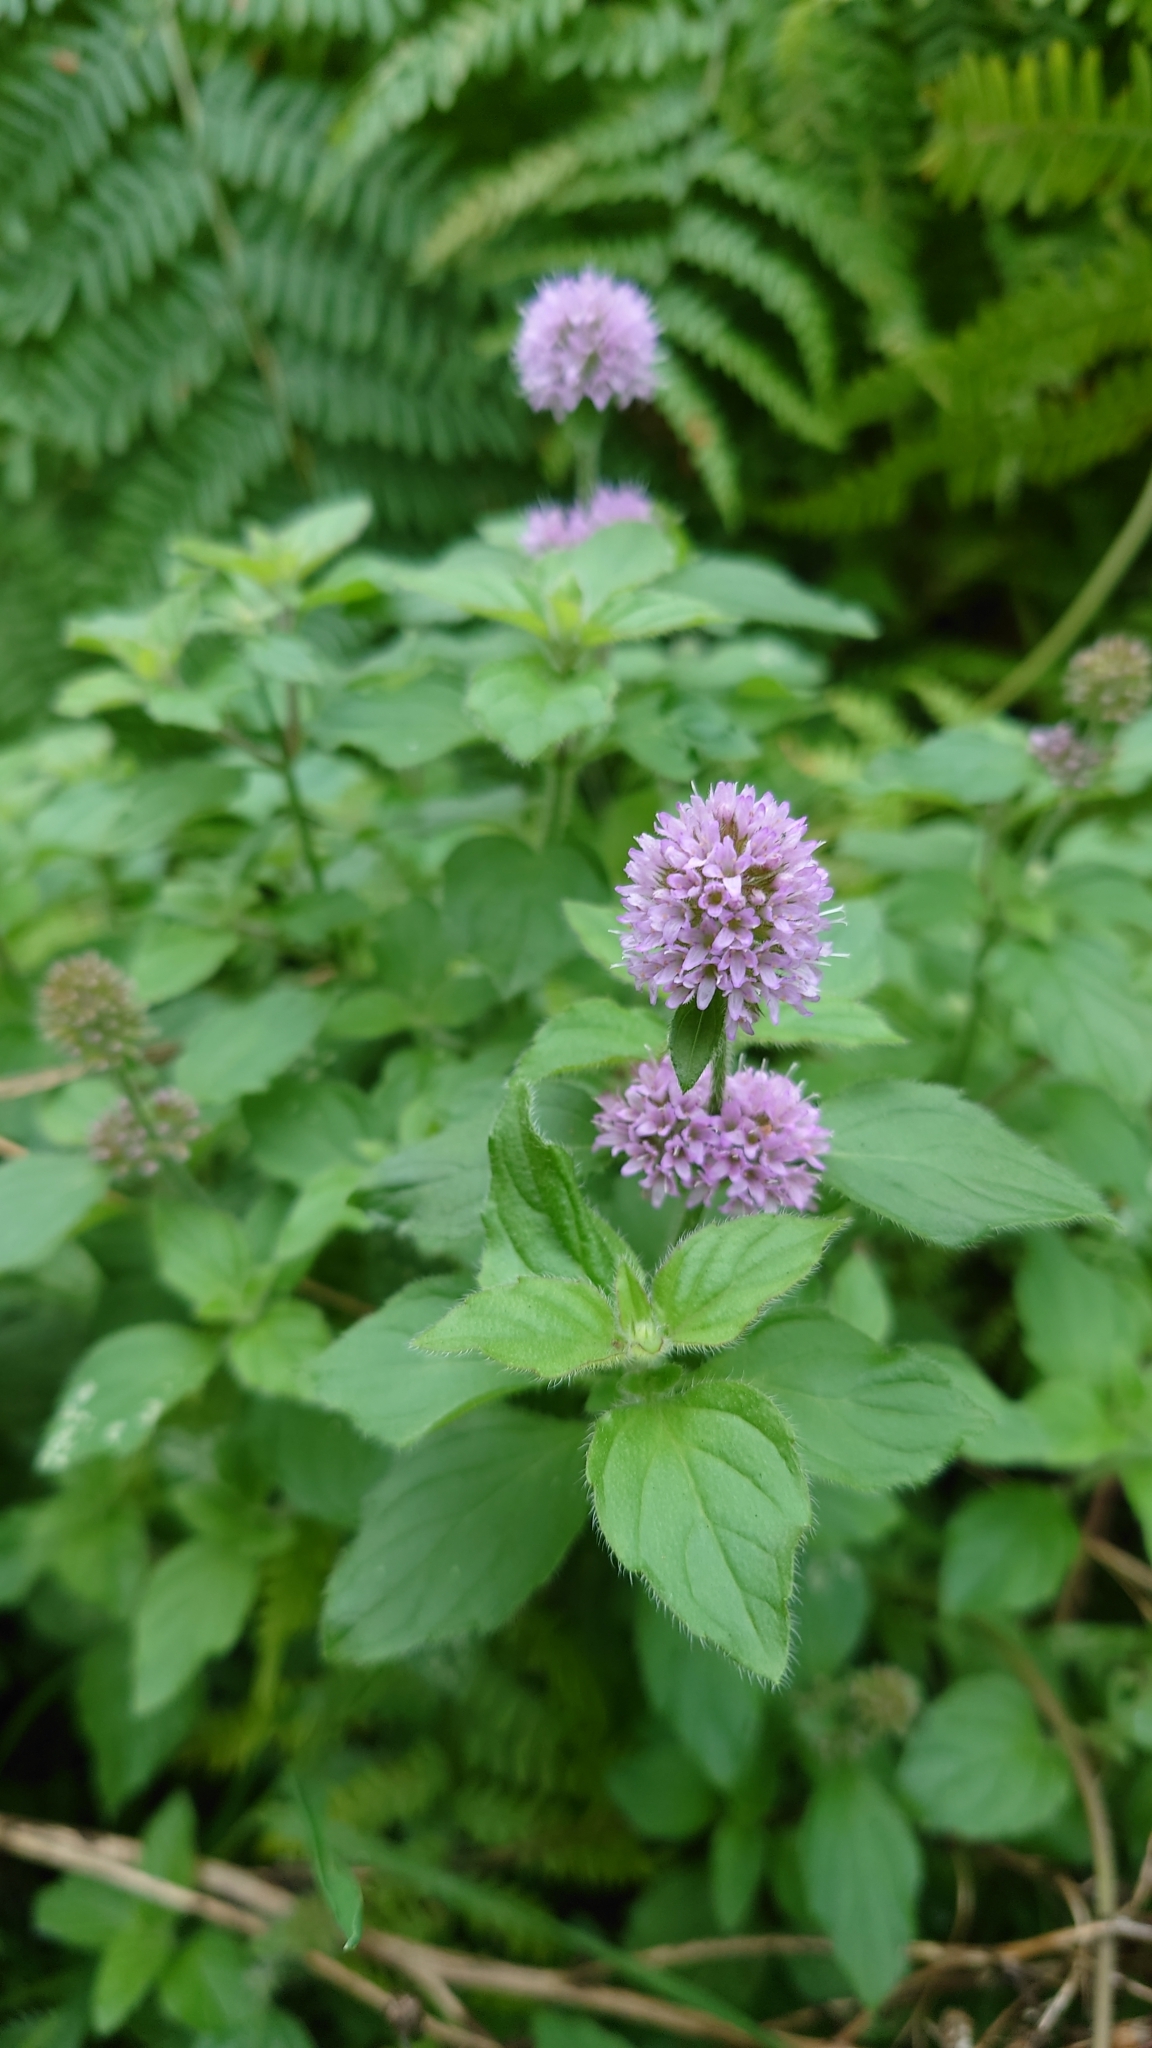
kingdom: Plantae
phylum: Tracheophyta
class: Magnoliopsida
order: Lamiales
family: Lamiaceae
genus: Mentha
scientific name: Mentha aquatica
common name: Water mint
